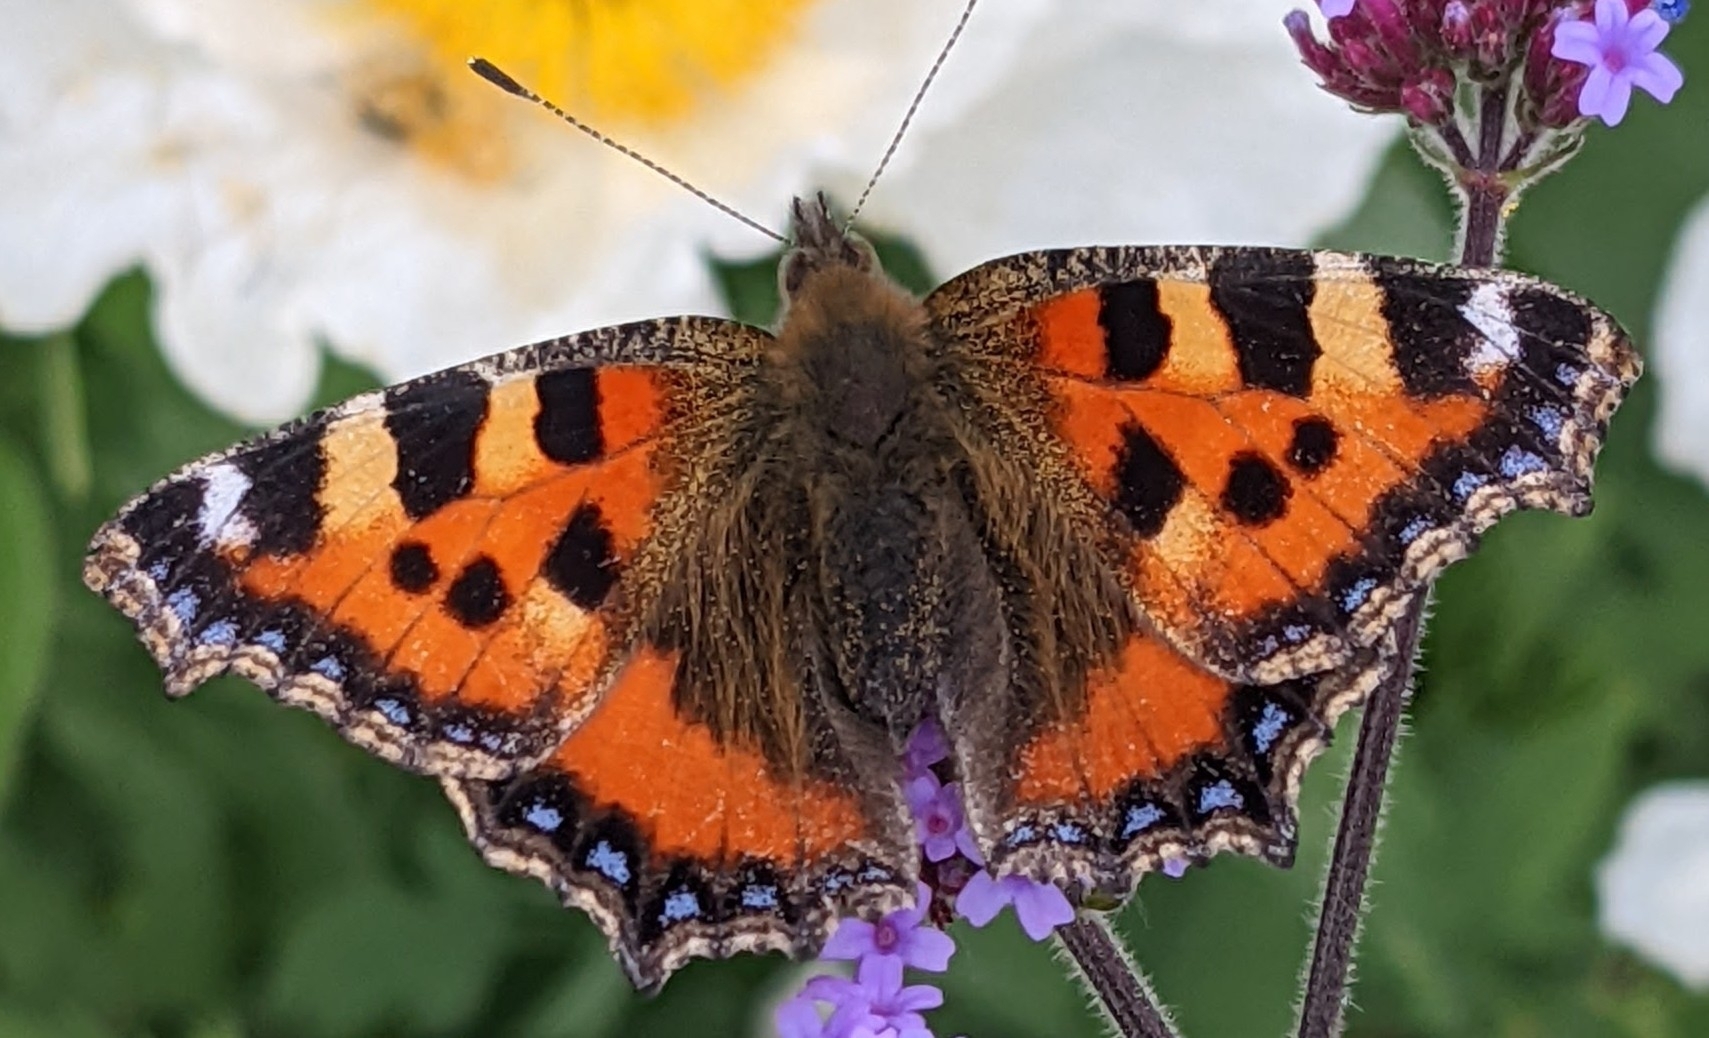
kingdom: Animalia
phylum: Arthropoda
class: Insecta
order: Lepidoptera
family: Nymphalidae
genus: Aglais
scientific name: Aglais urticae
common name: Small tortoiseshell
